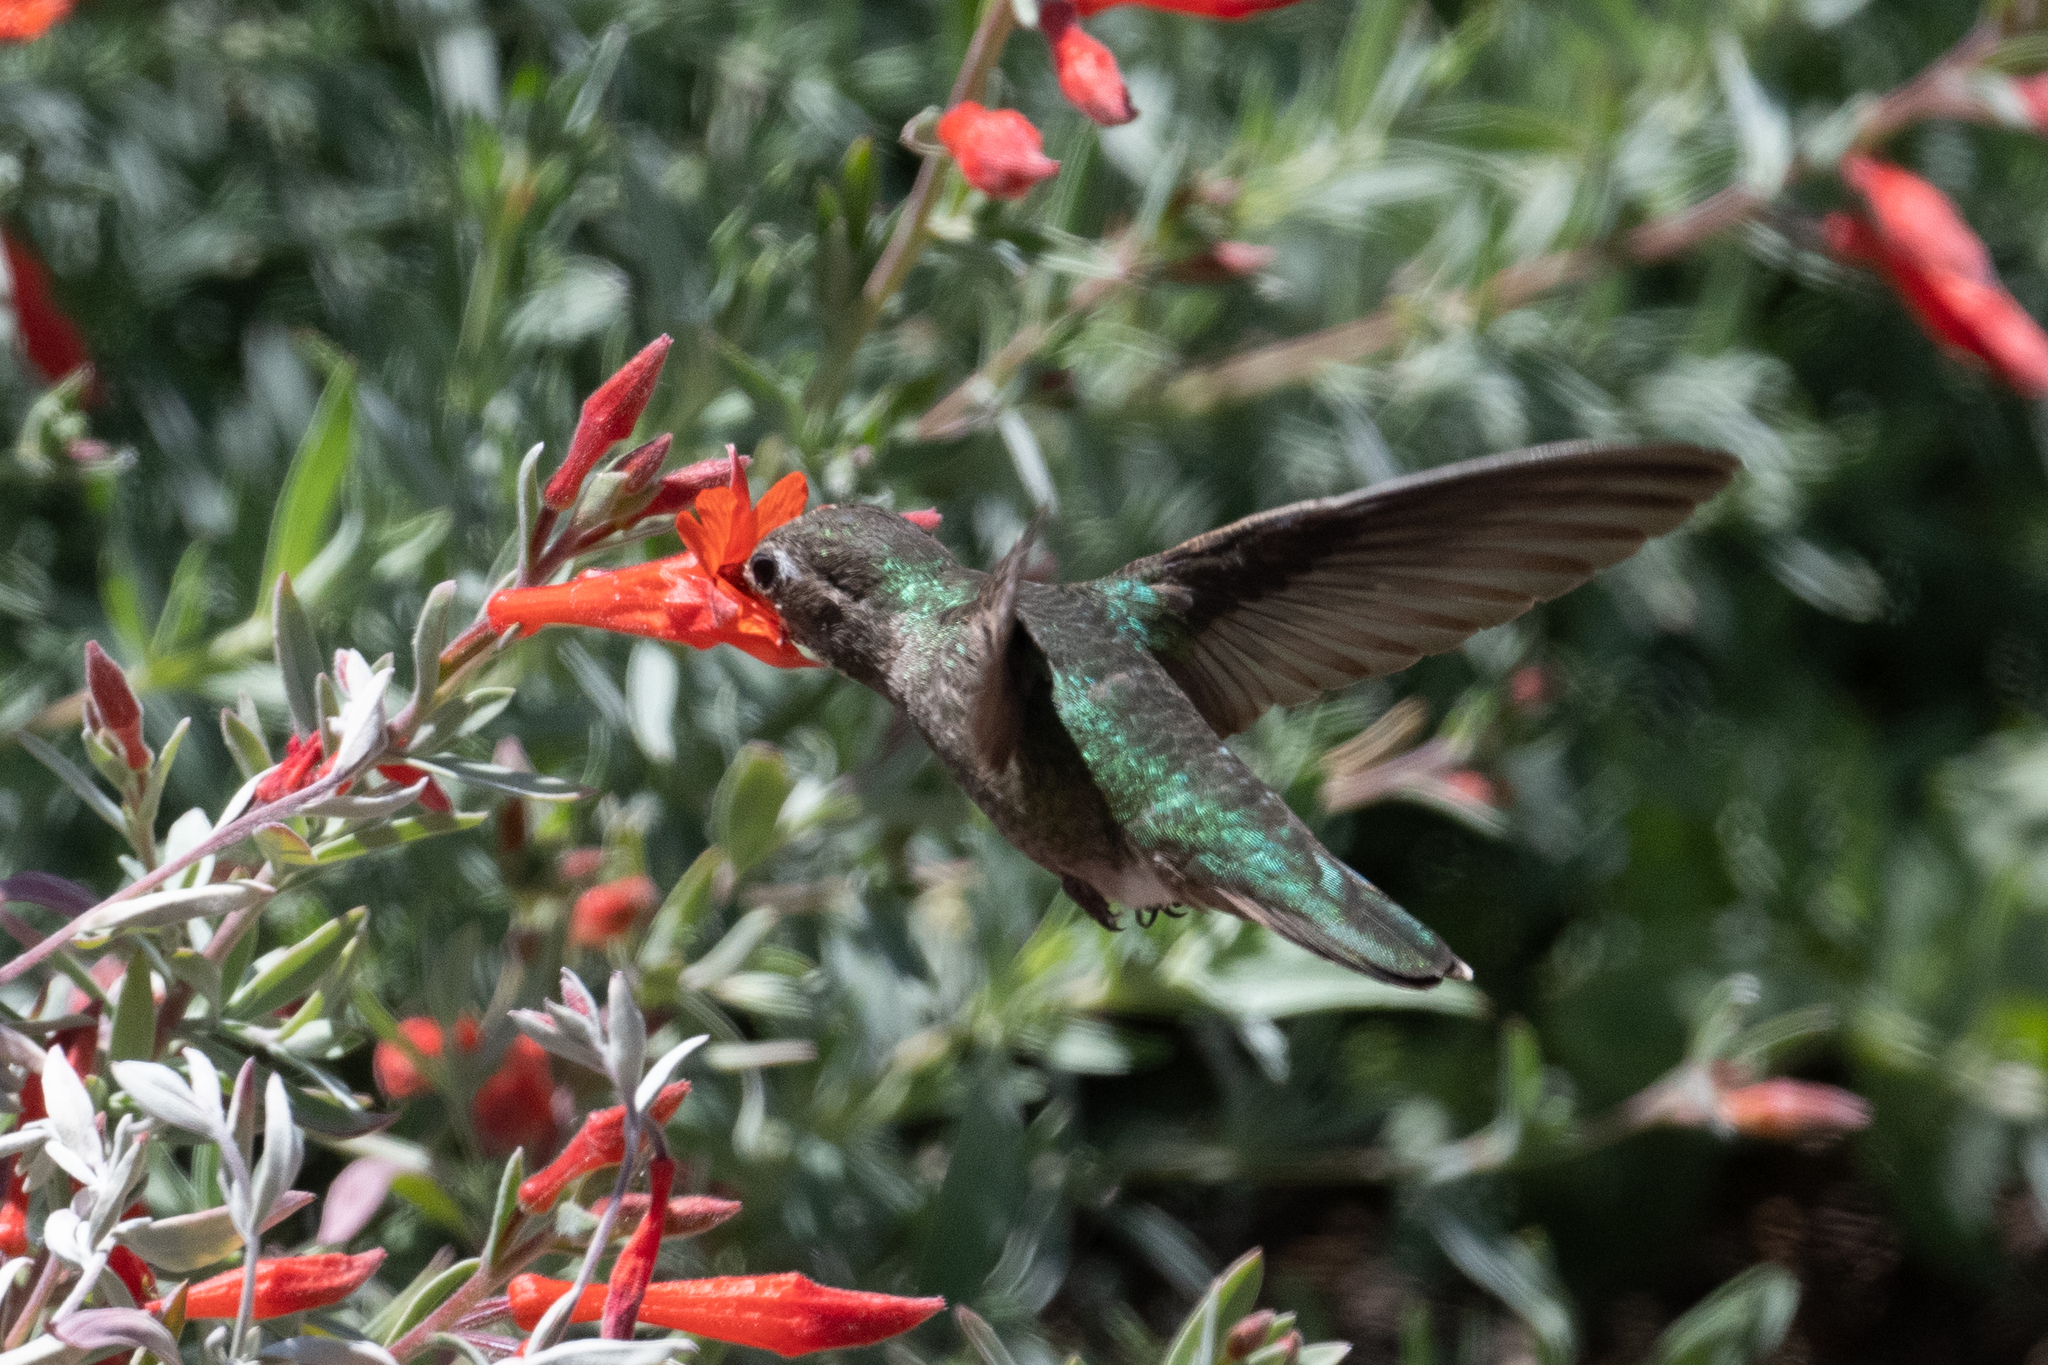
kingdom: Animalia
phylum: Chordata
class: Aves
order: Apodiformes
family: Trochilidae
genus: Calypte
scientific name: Calypte anna
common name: Anna's hummingbird
